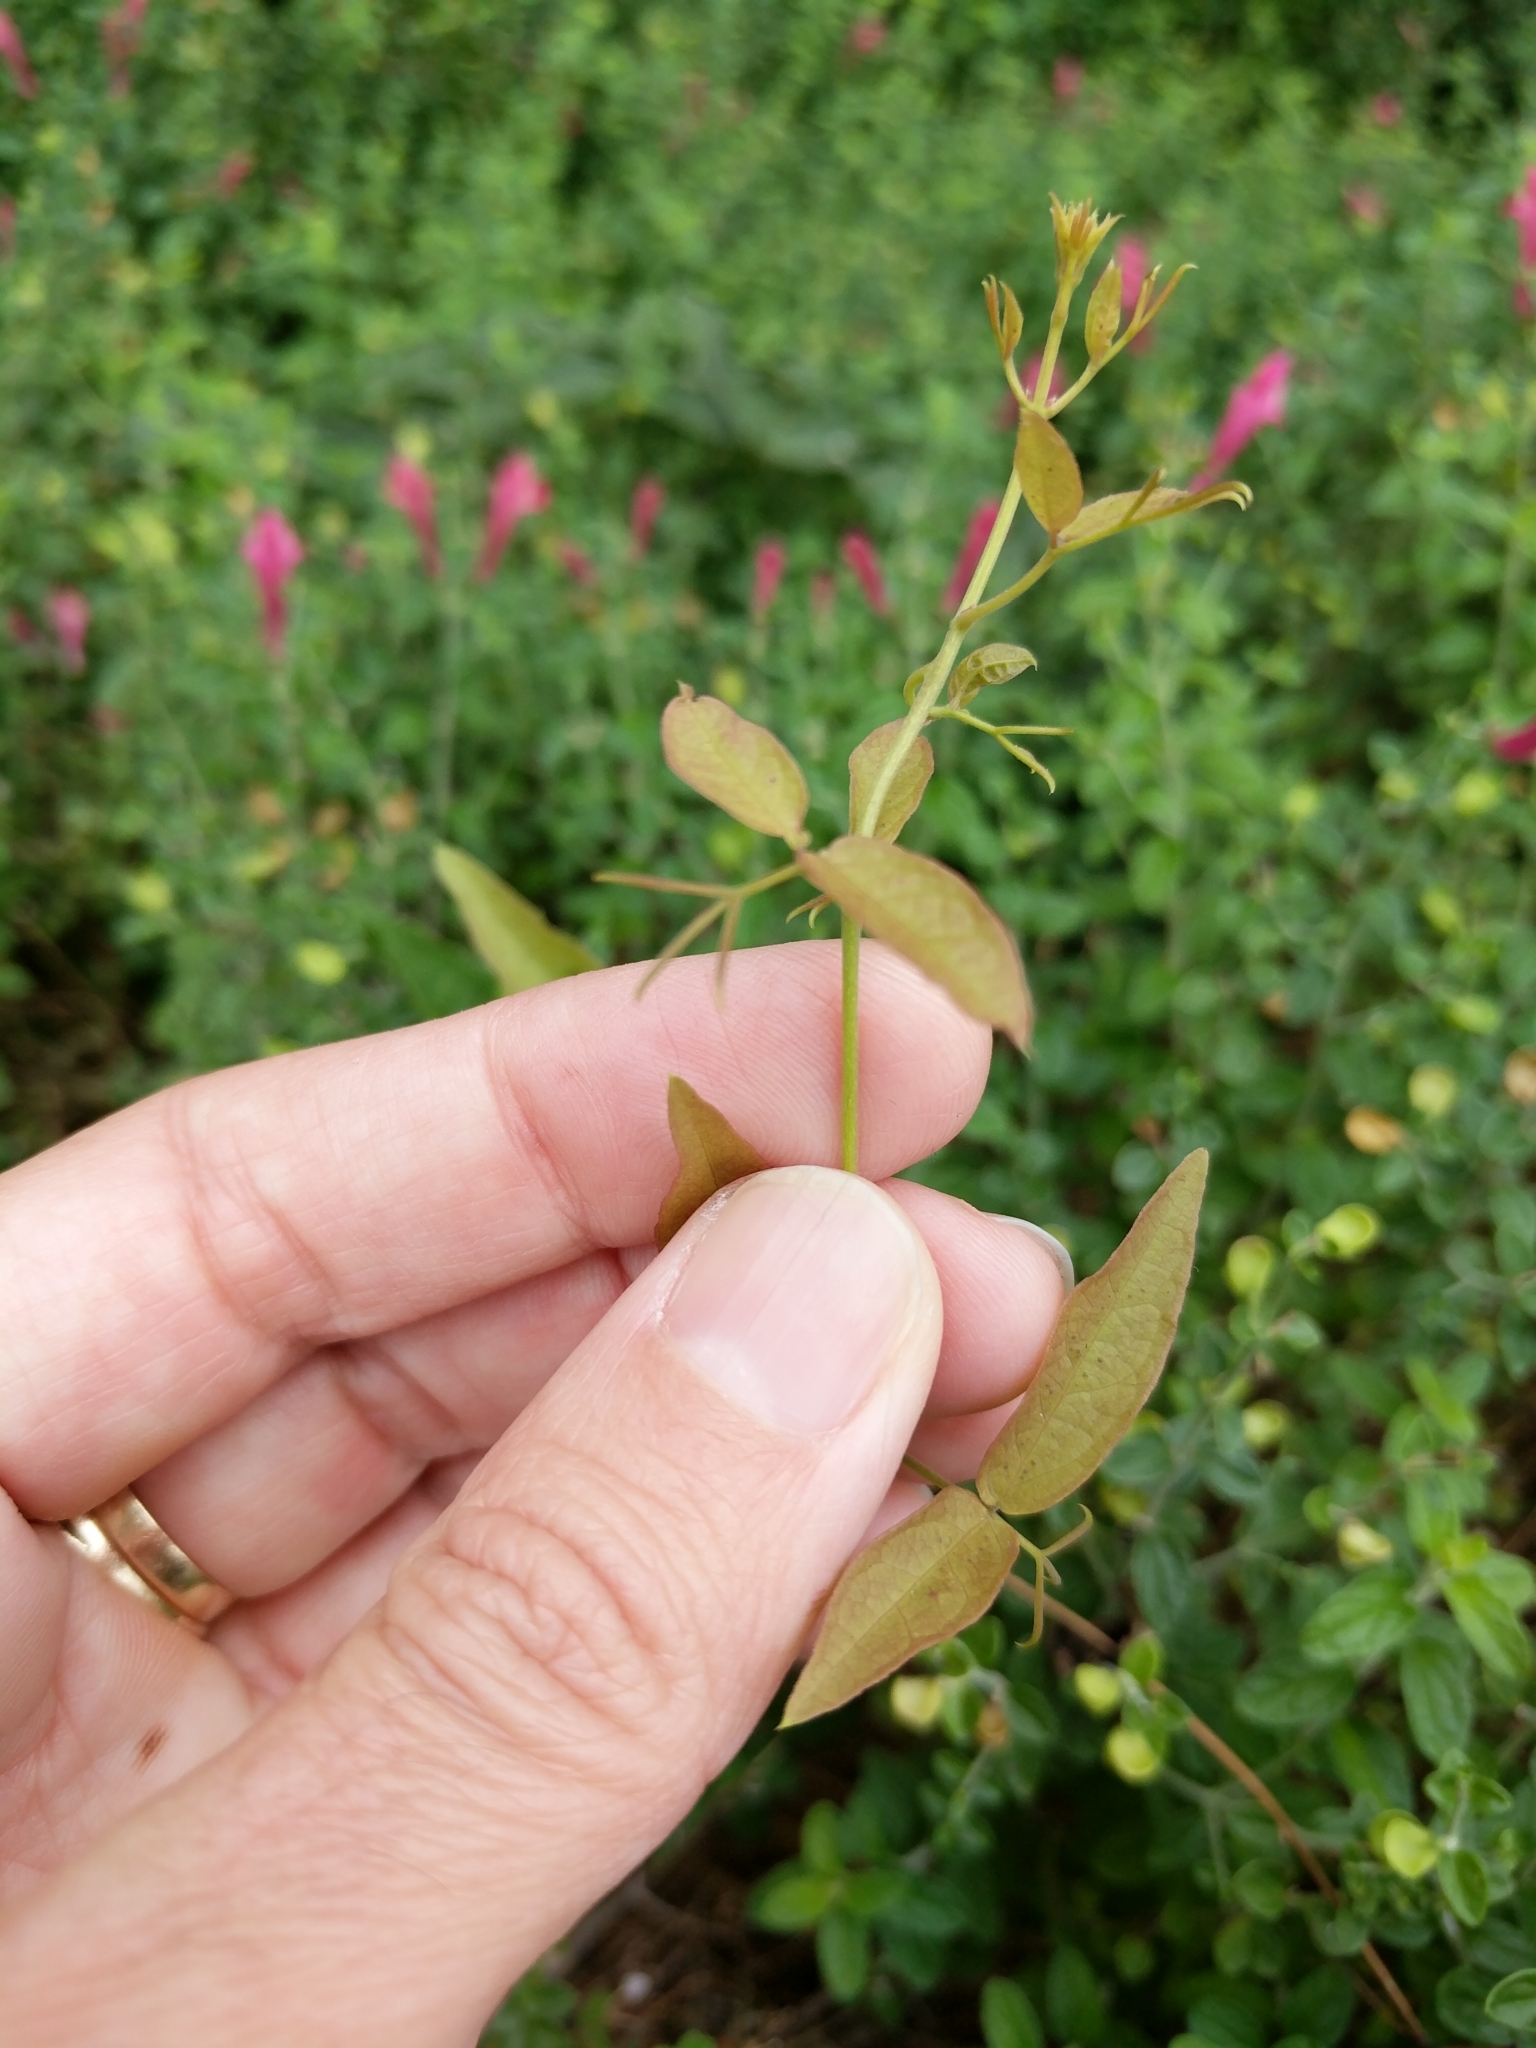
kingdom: Plantae
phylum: Tracheophyta
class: Magnoliopsida
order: Lamiales
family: Bignoniaceae
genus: Dolichandra
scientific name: Dolichandra unguis-cati
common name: Catclaw vine
